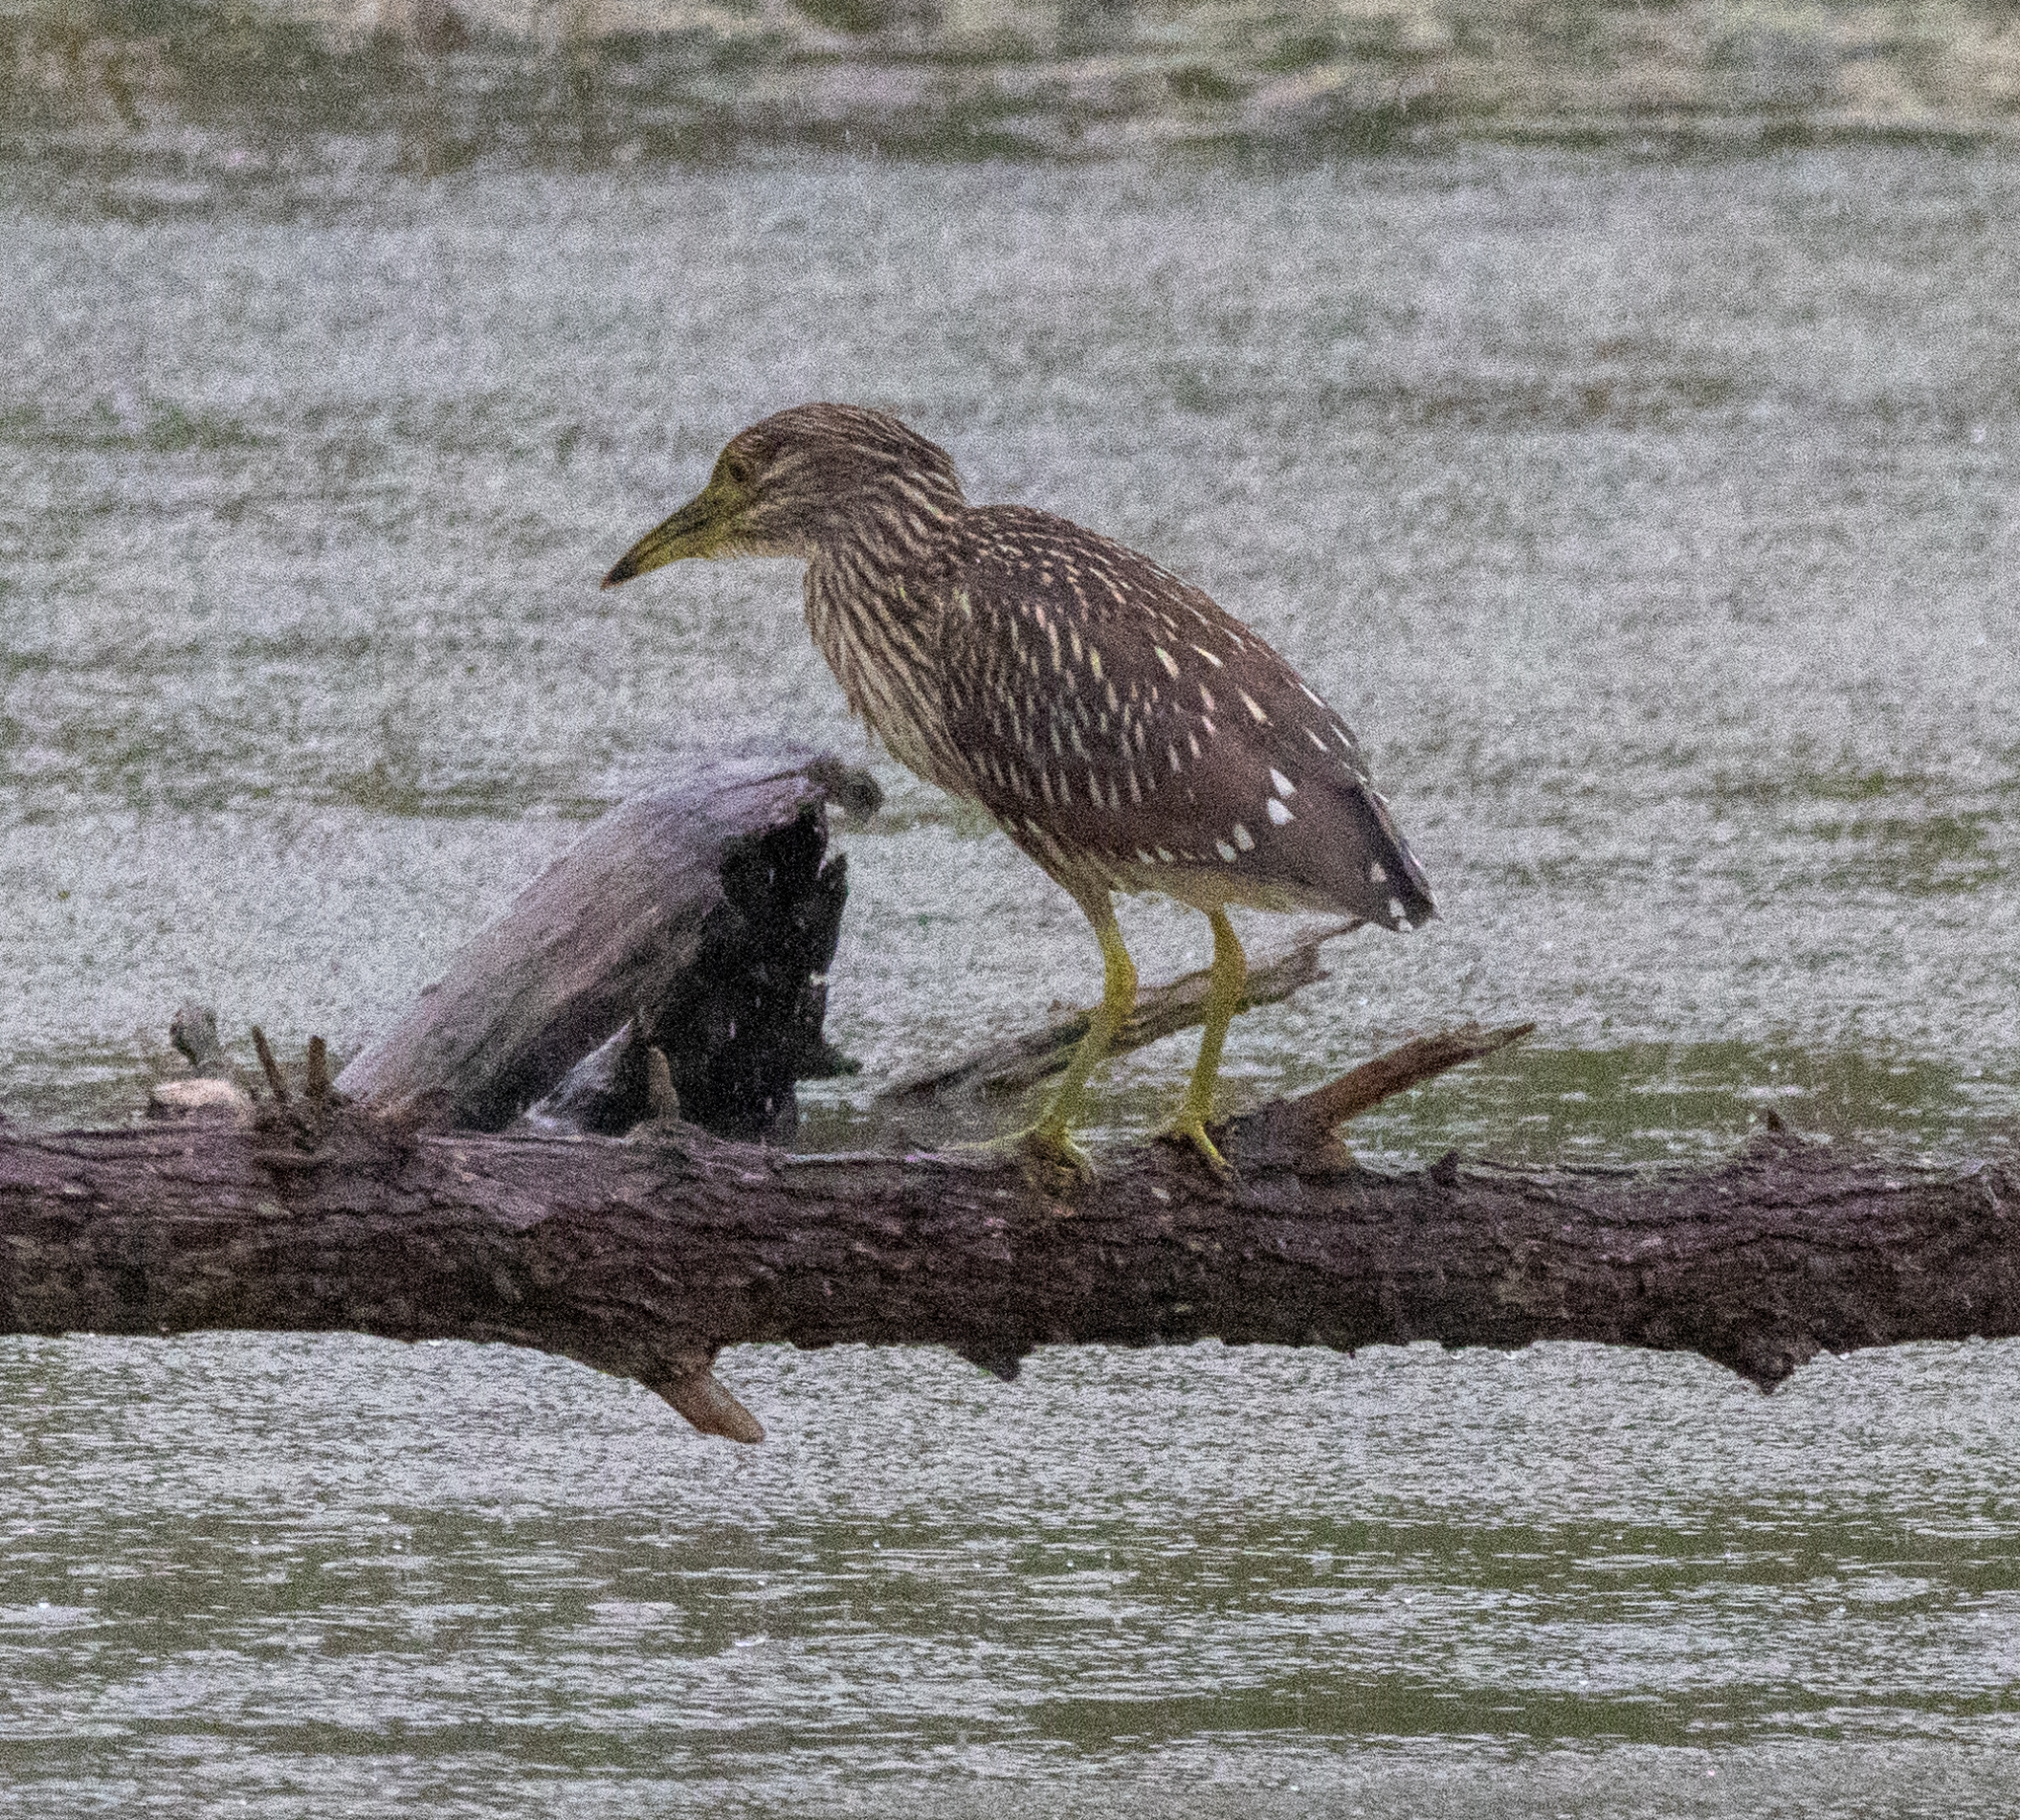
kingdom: Animalia
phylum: Chordata
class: Aves
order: Pelecaniformes
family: Ardeidae
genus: Nycticorax
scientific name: Nycticorax nycticorax
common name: Black-crowned night heron
